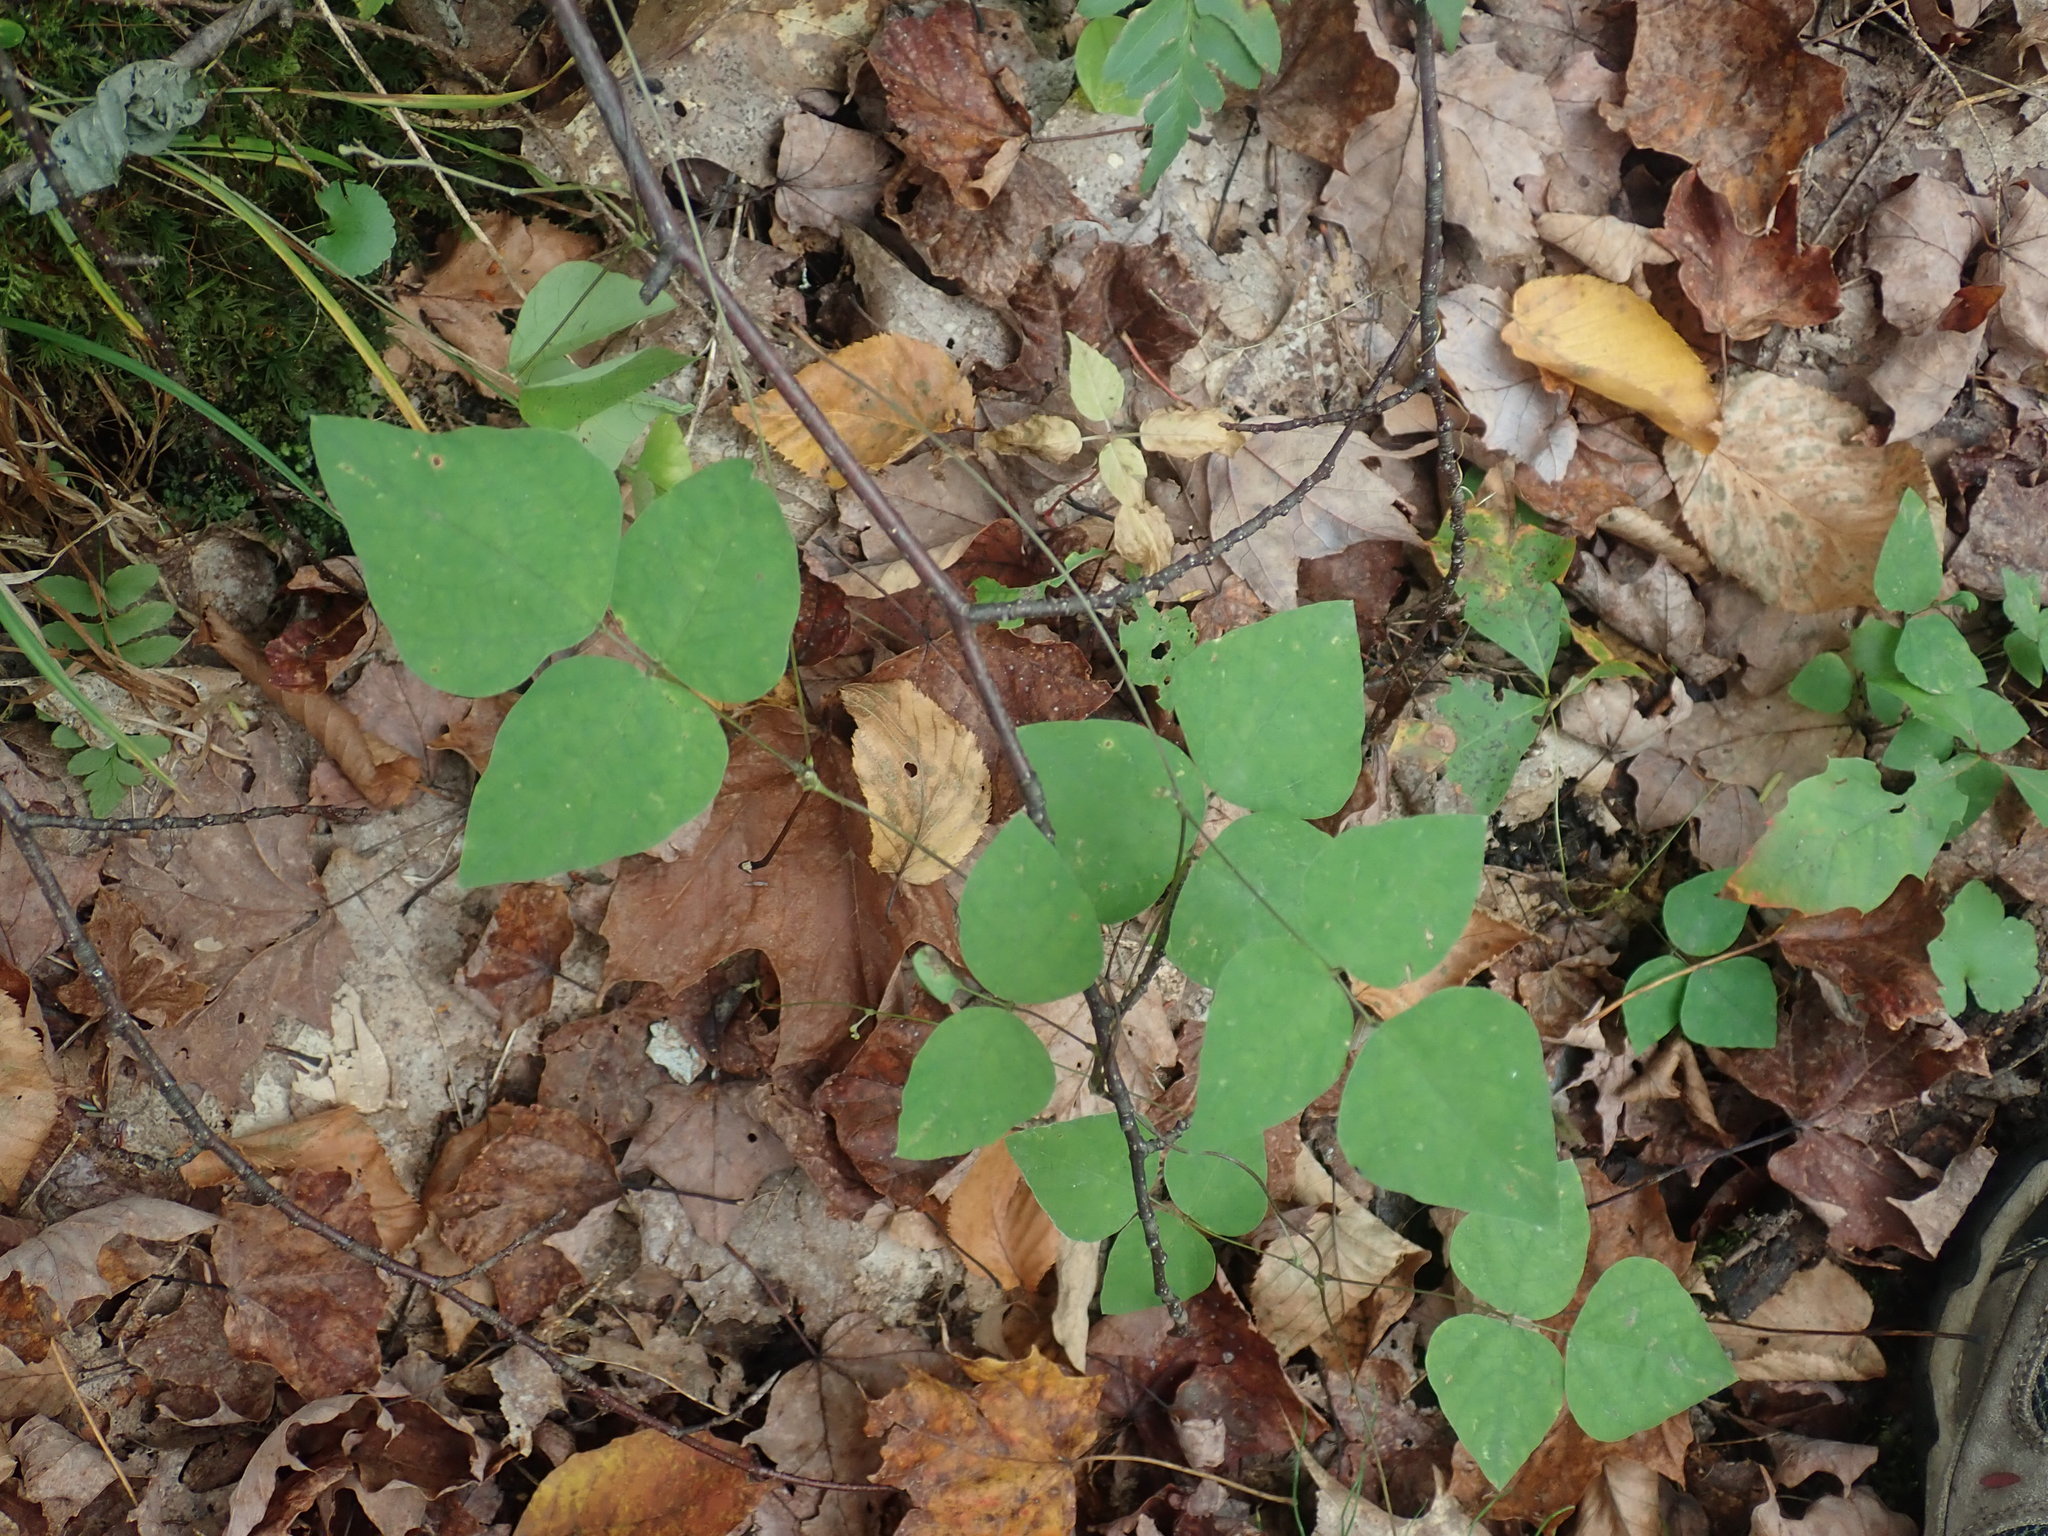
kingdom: Plantae
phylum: Tracheophyta
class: Magnoliopsida
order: Fabales
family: Fabaceae
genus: Amphicarpaea
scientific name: Amphicarpaea bracteata
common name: American hog peanut
